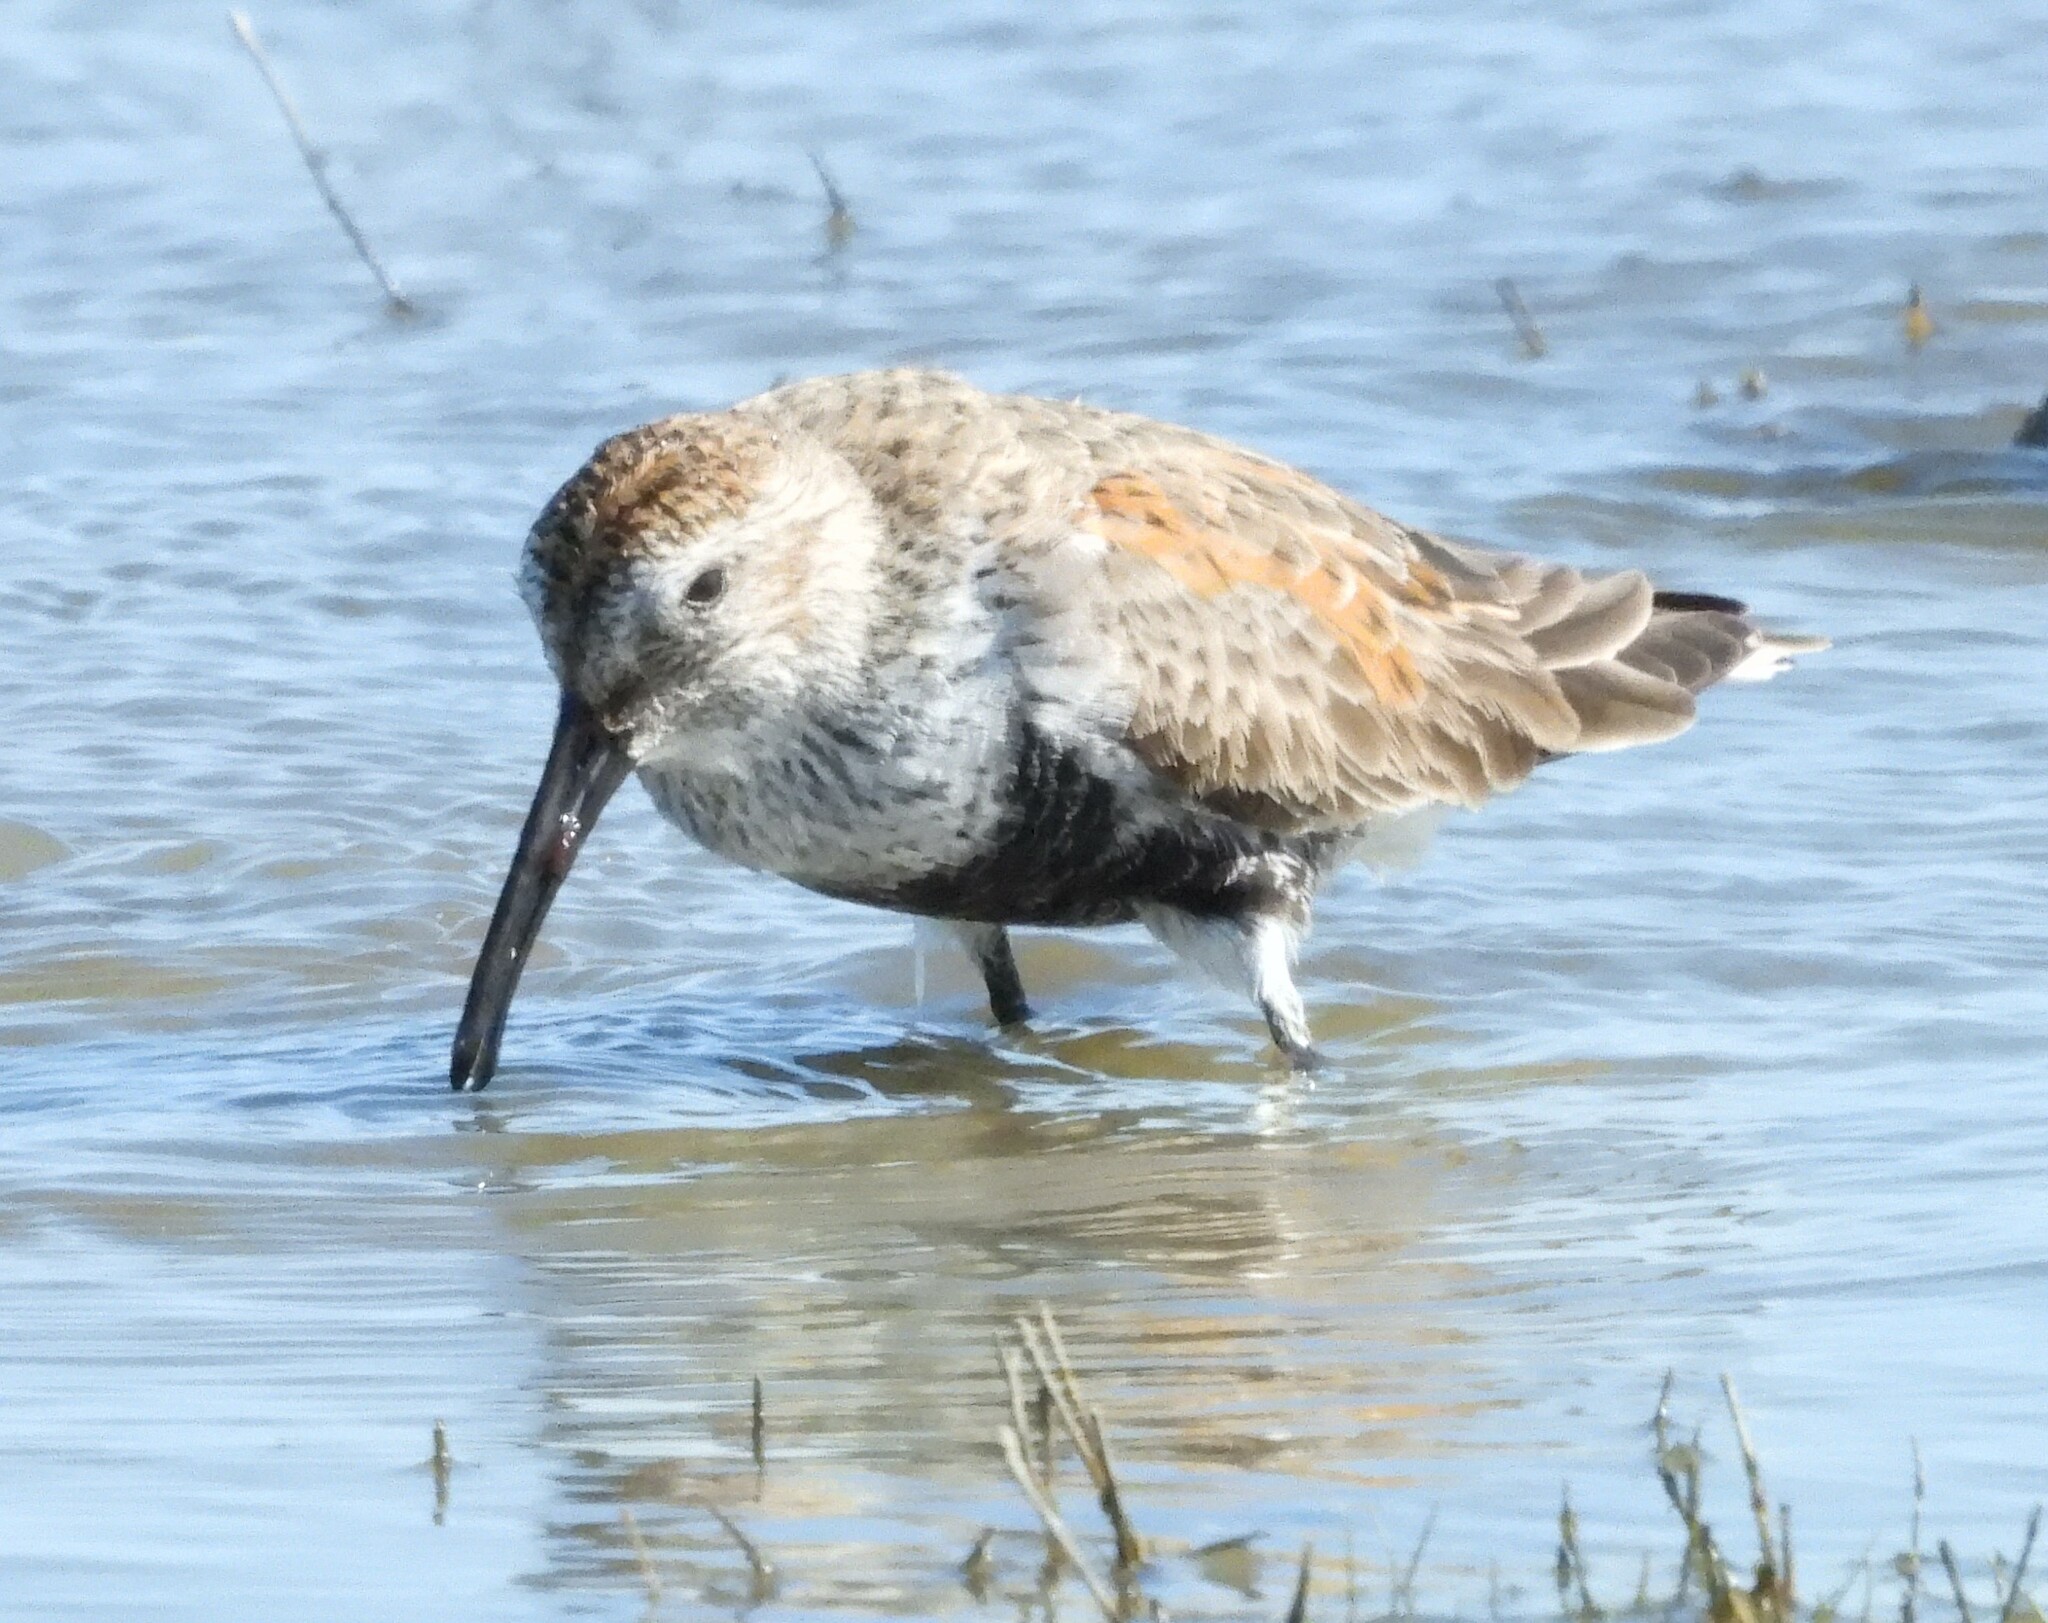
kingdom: Animalia
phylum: Chordata
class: Aves
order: Charadriiformes
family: Scolopacidae
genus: Calidris
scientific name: Calidris alpina
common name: Dunlin
